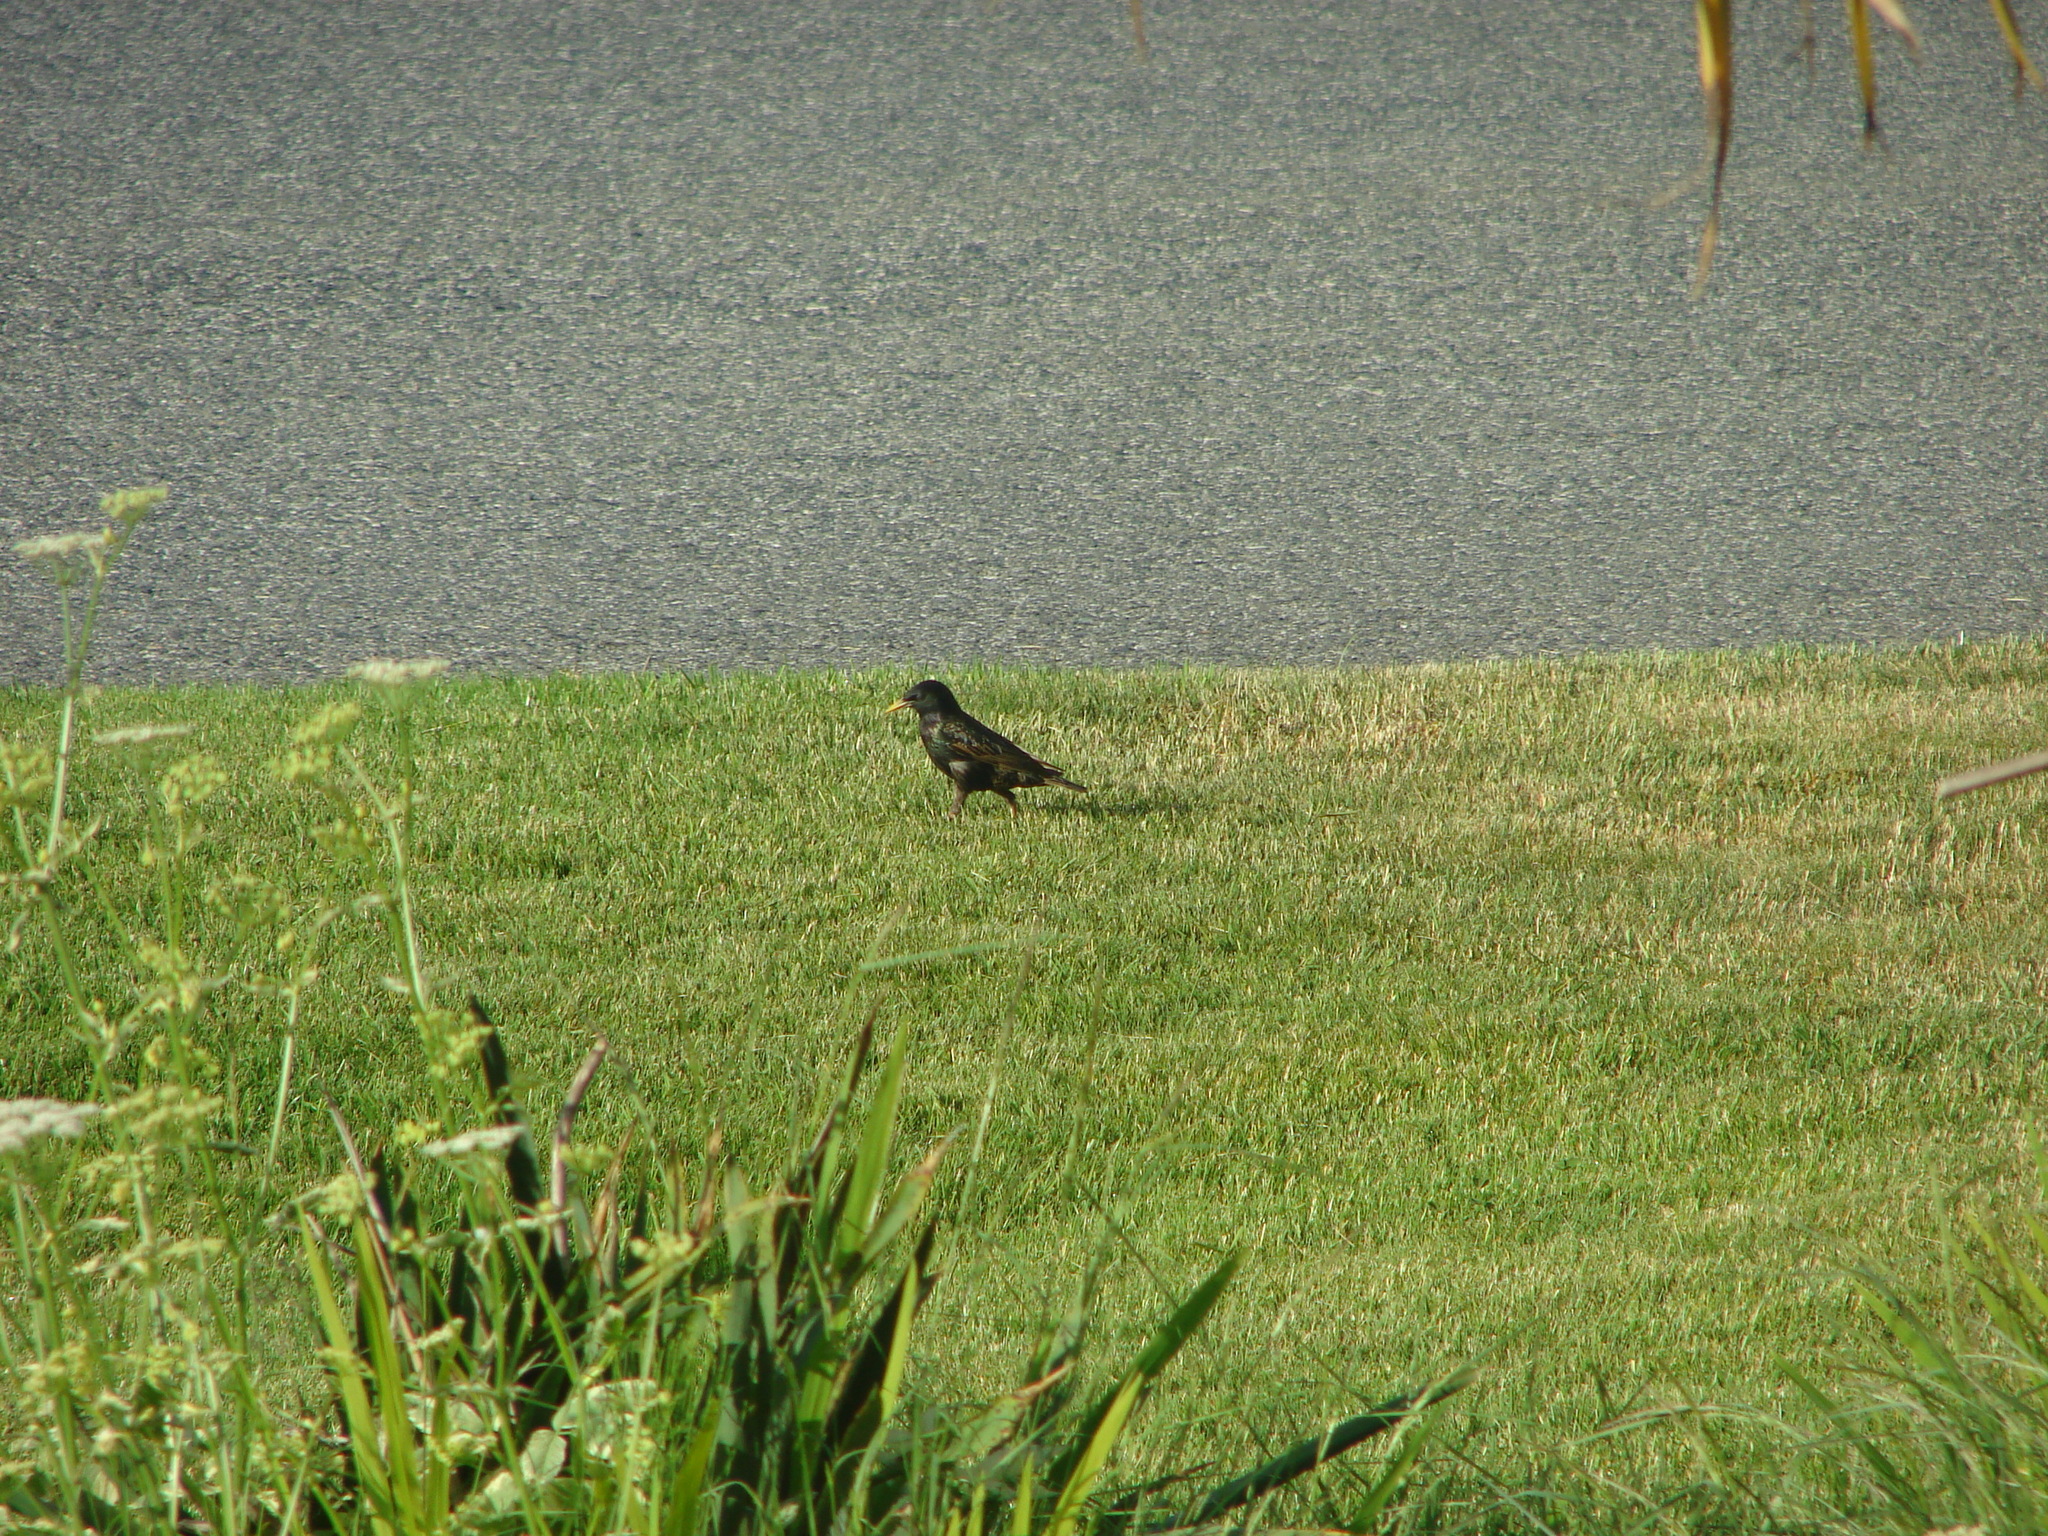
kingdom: Animalia
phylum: Chordata
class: Aves
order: Passeriformes
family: Sturnidae
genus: Sturnus
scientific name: Sturnus vulgaris
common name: Common starling
